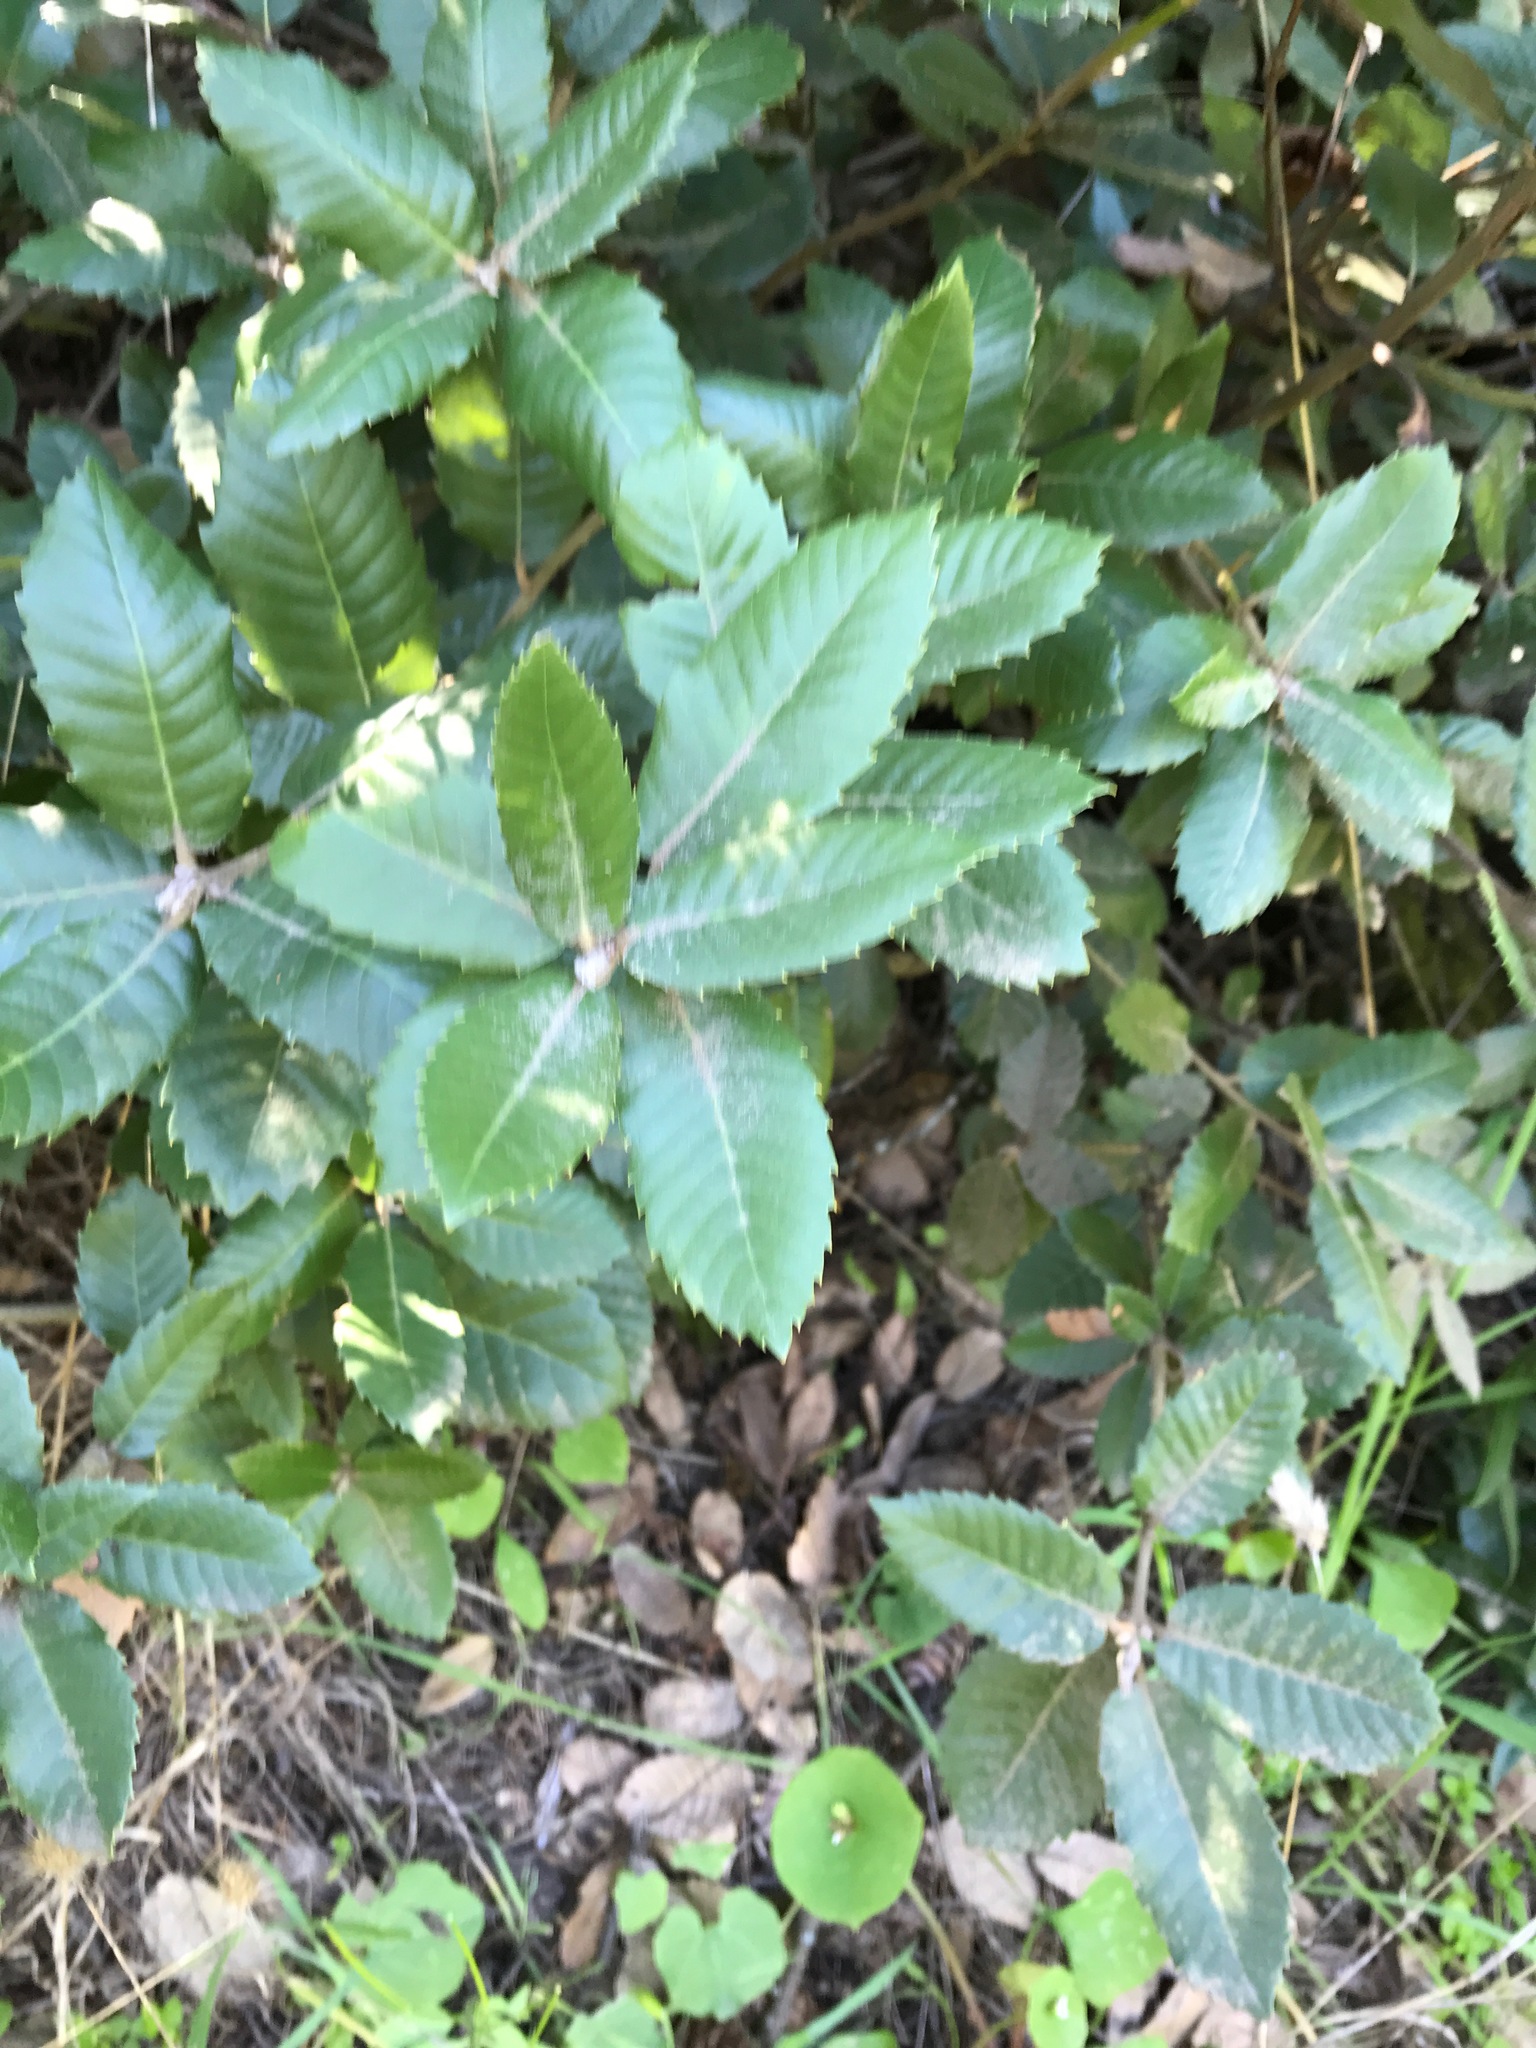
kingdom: Plantae
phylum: Tracheophyta
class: Magnoliopsida
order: Fagales
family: Fagaceae
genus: Notholithocarpus
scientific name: Notholithocarpus densiflorus
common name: Tan bark oak
